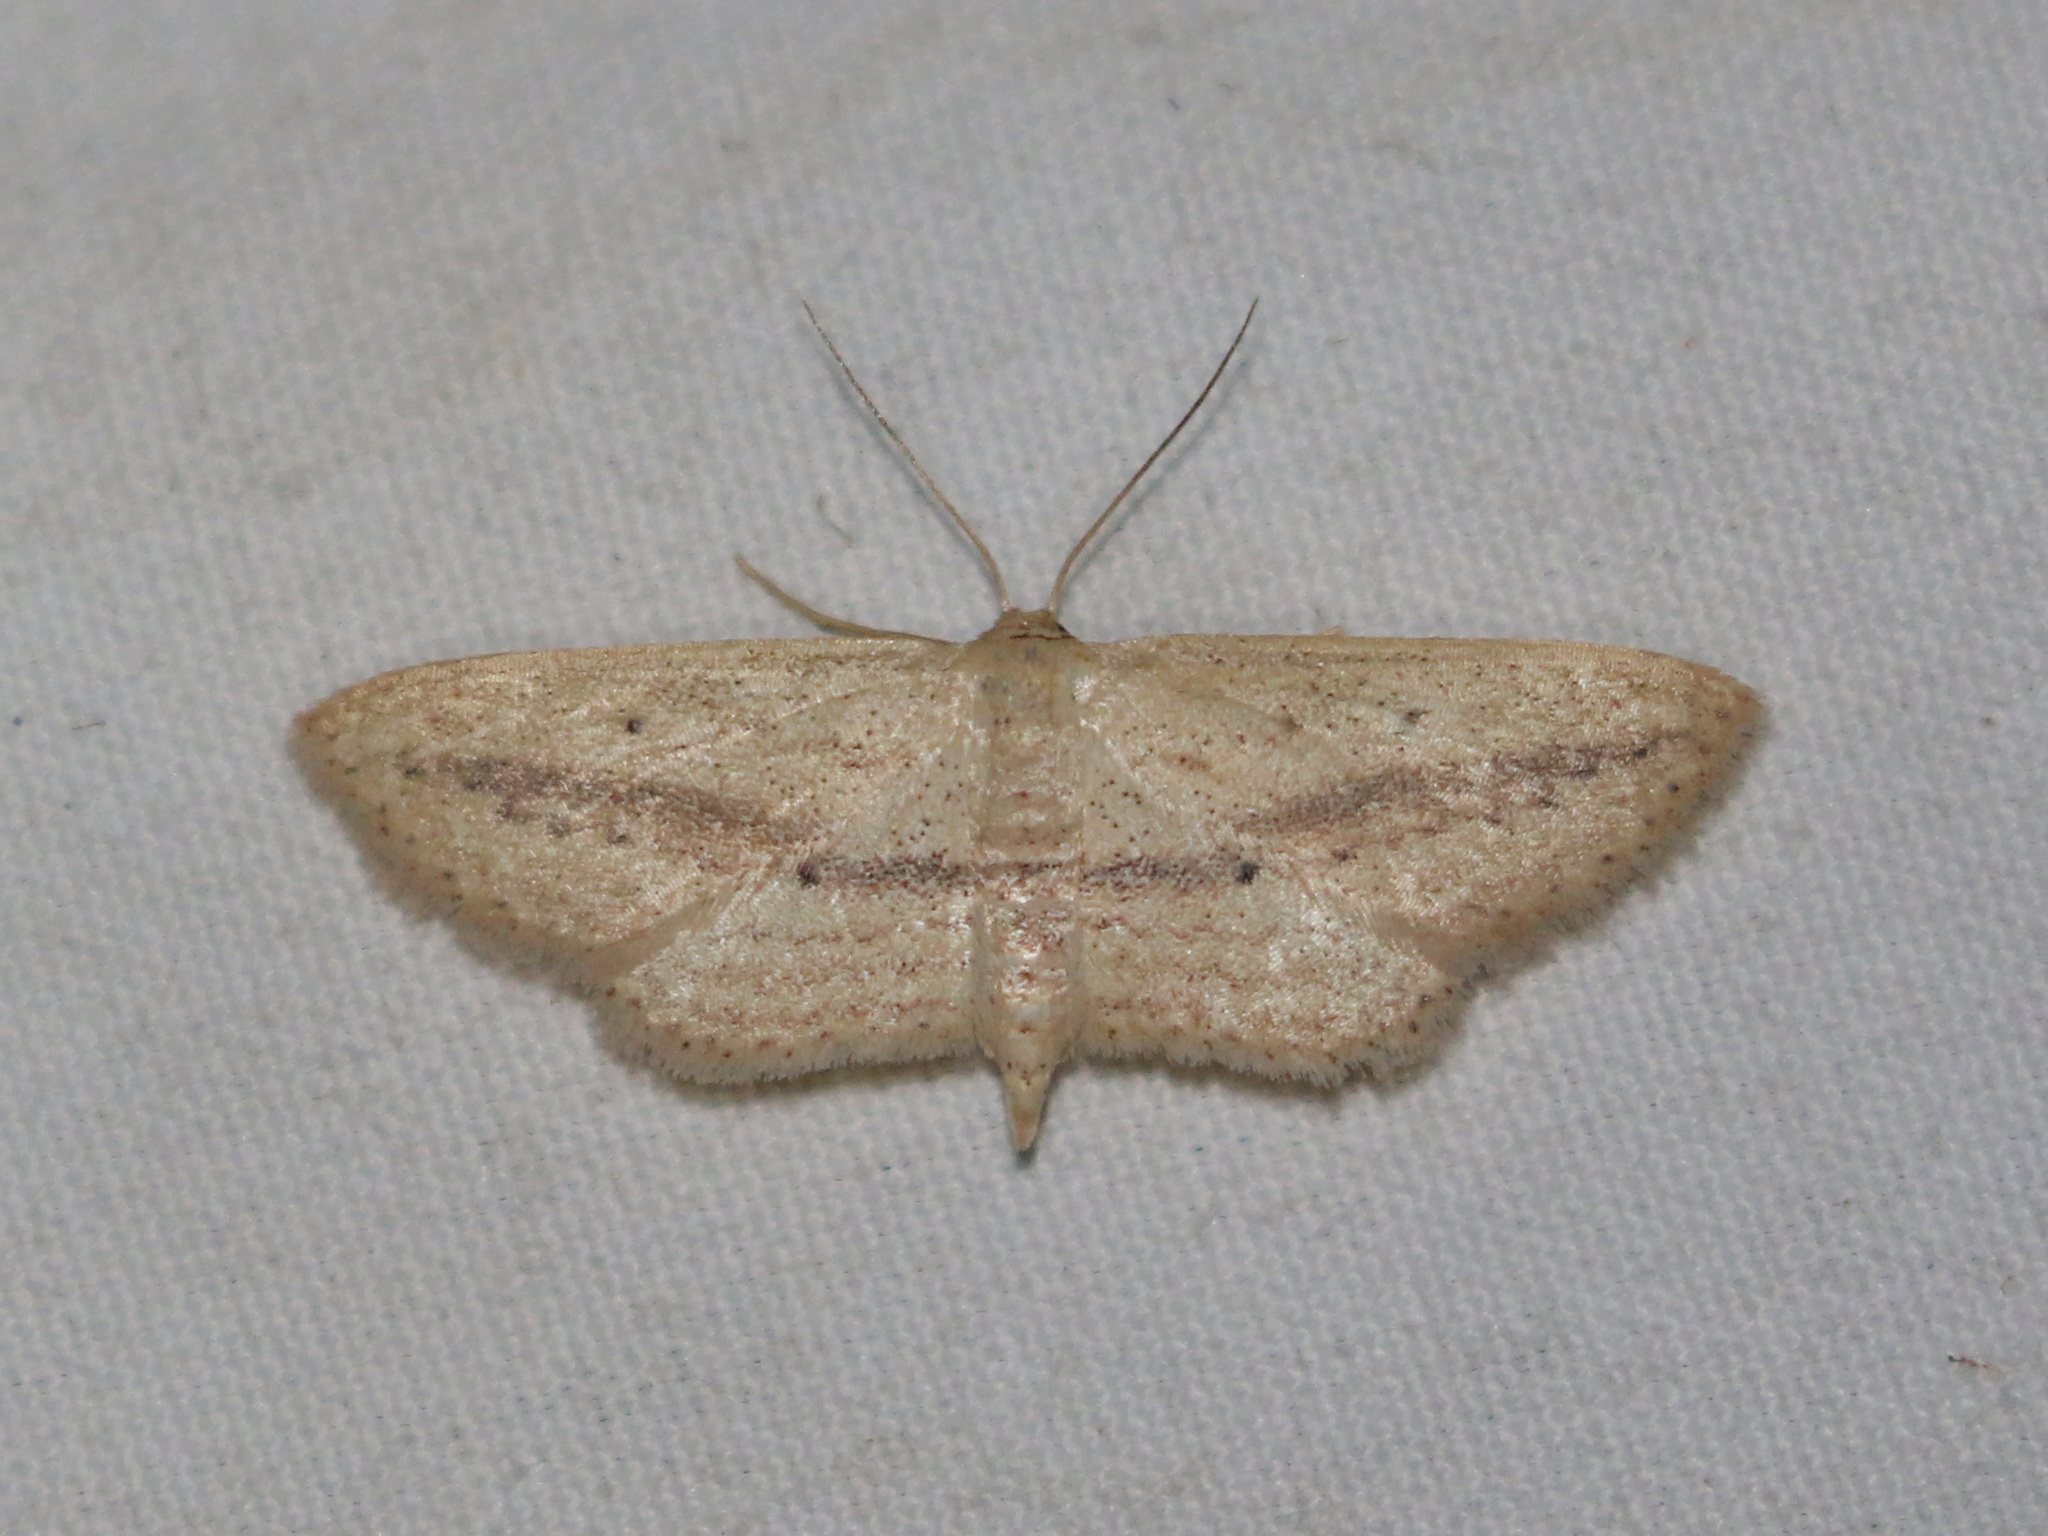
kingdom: Animalia
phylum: Arthropoda
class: Insecta
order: Lepidoptera
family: Geometridae
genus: Scopula
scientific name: Scopula emissaria
